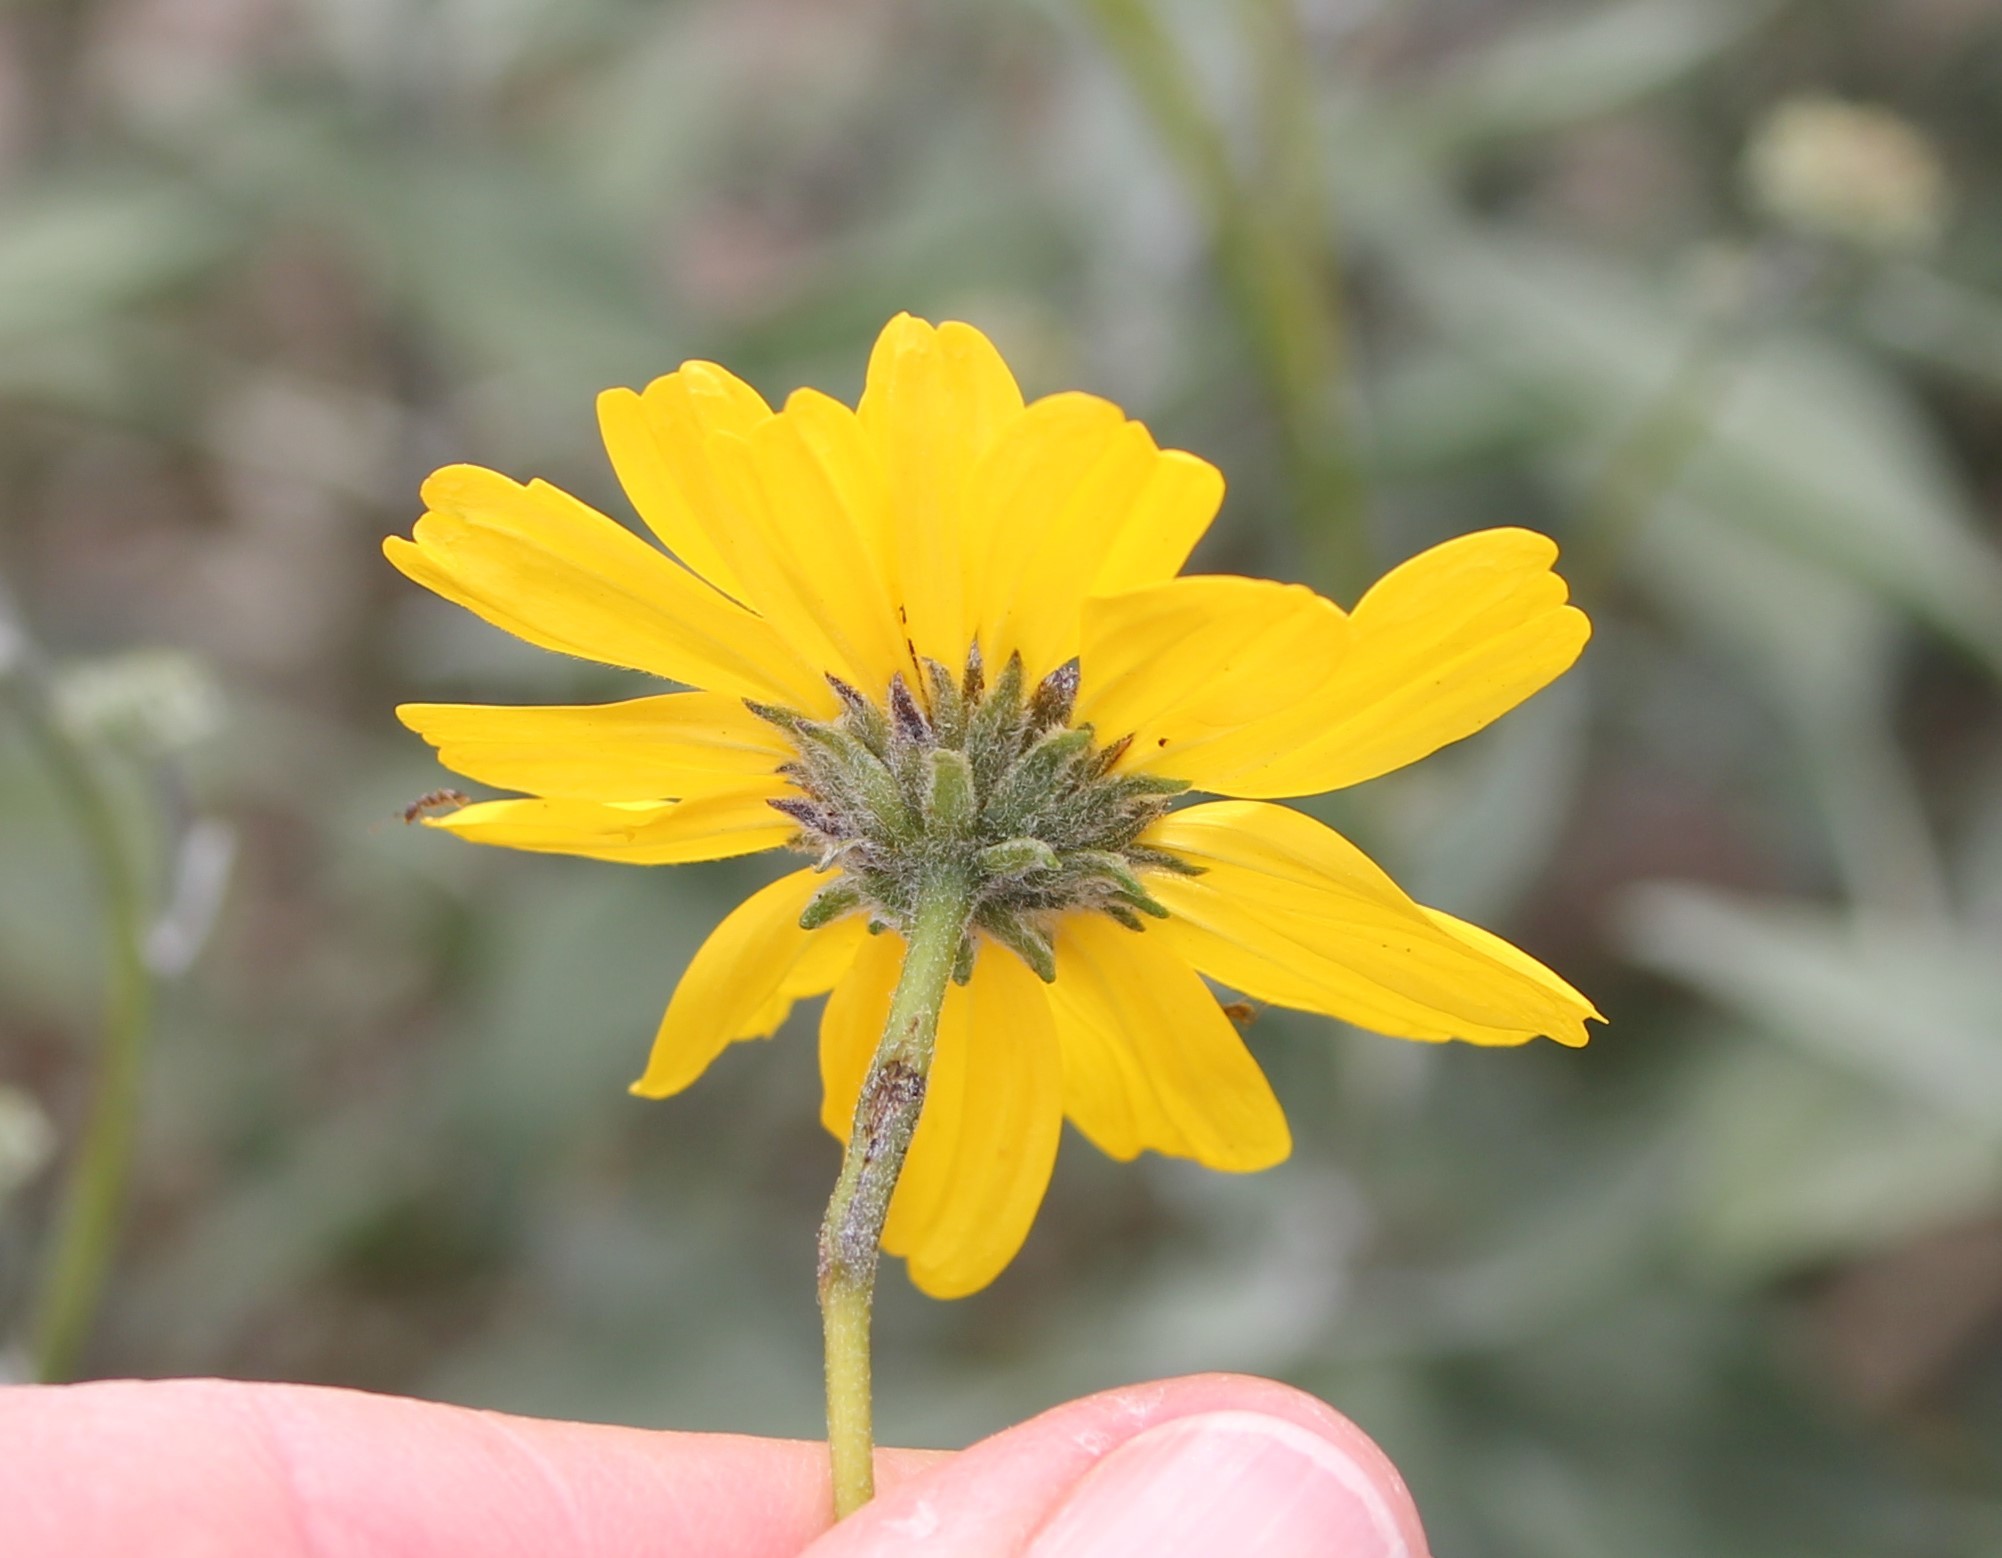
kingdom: Plantae
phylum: Tracheophyta
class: Magnoliopsida
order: Asterales
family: Asteraceae
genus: Encelia
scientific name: Encelia
